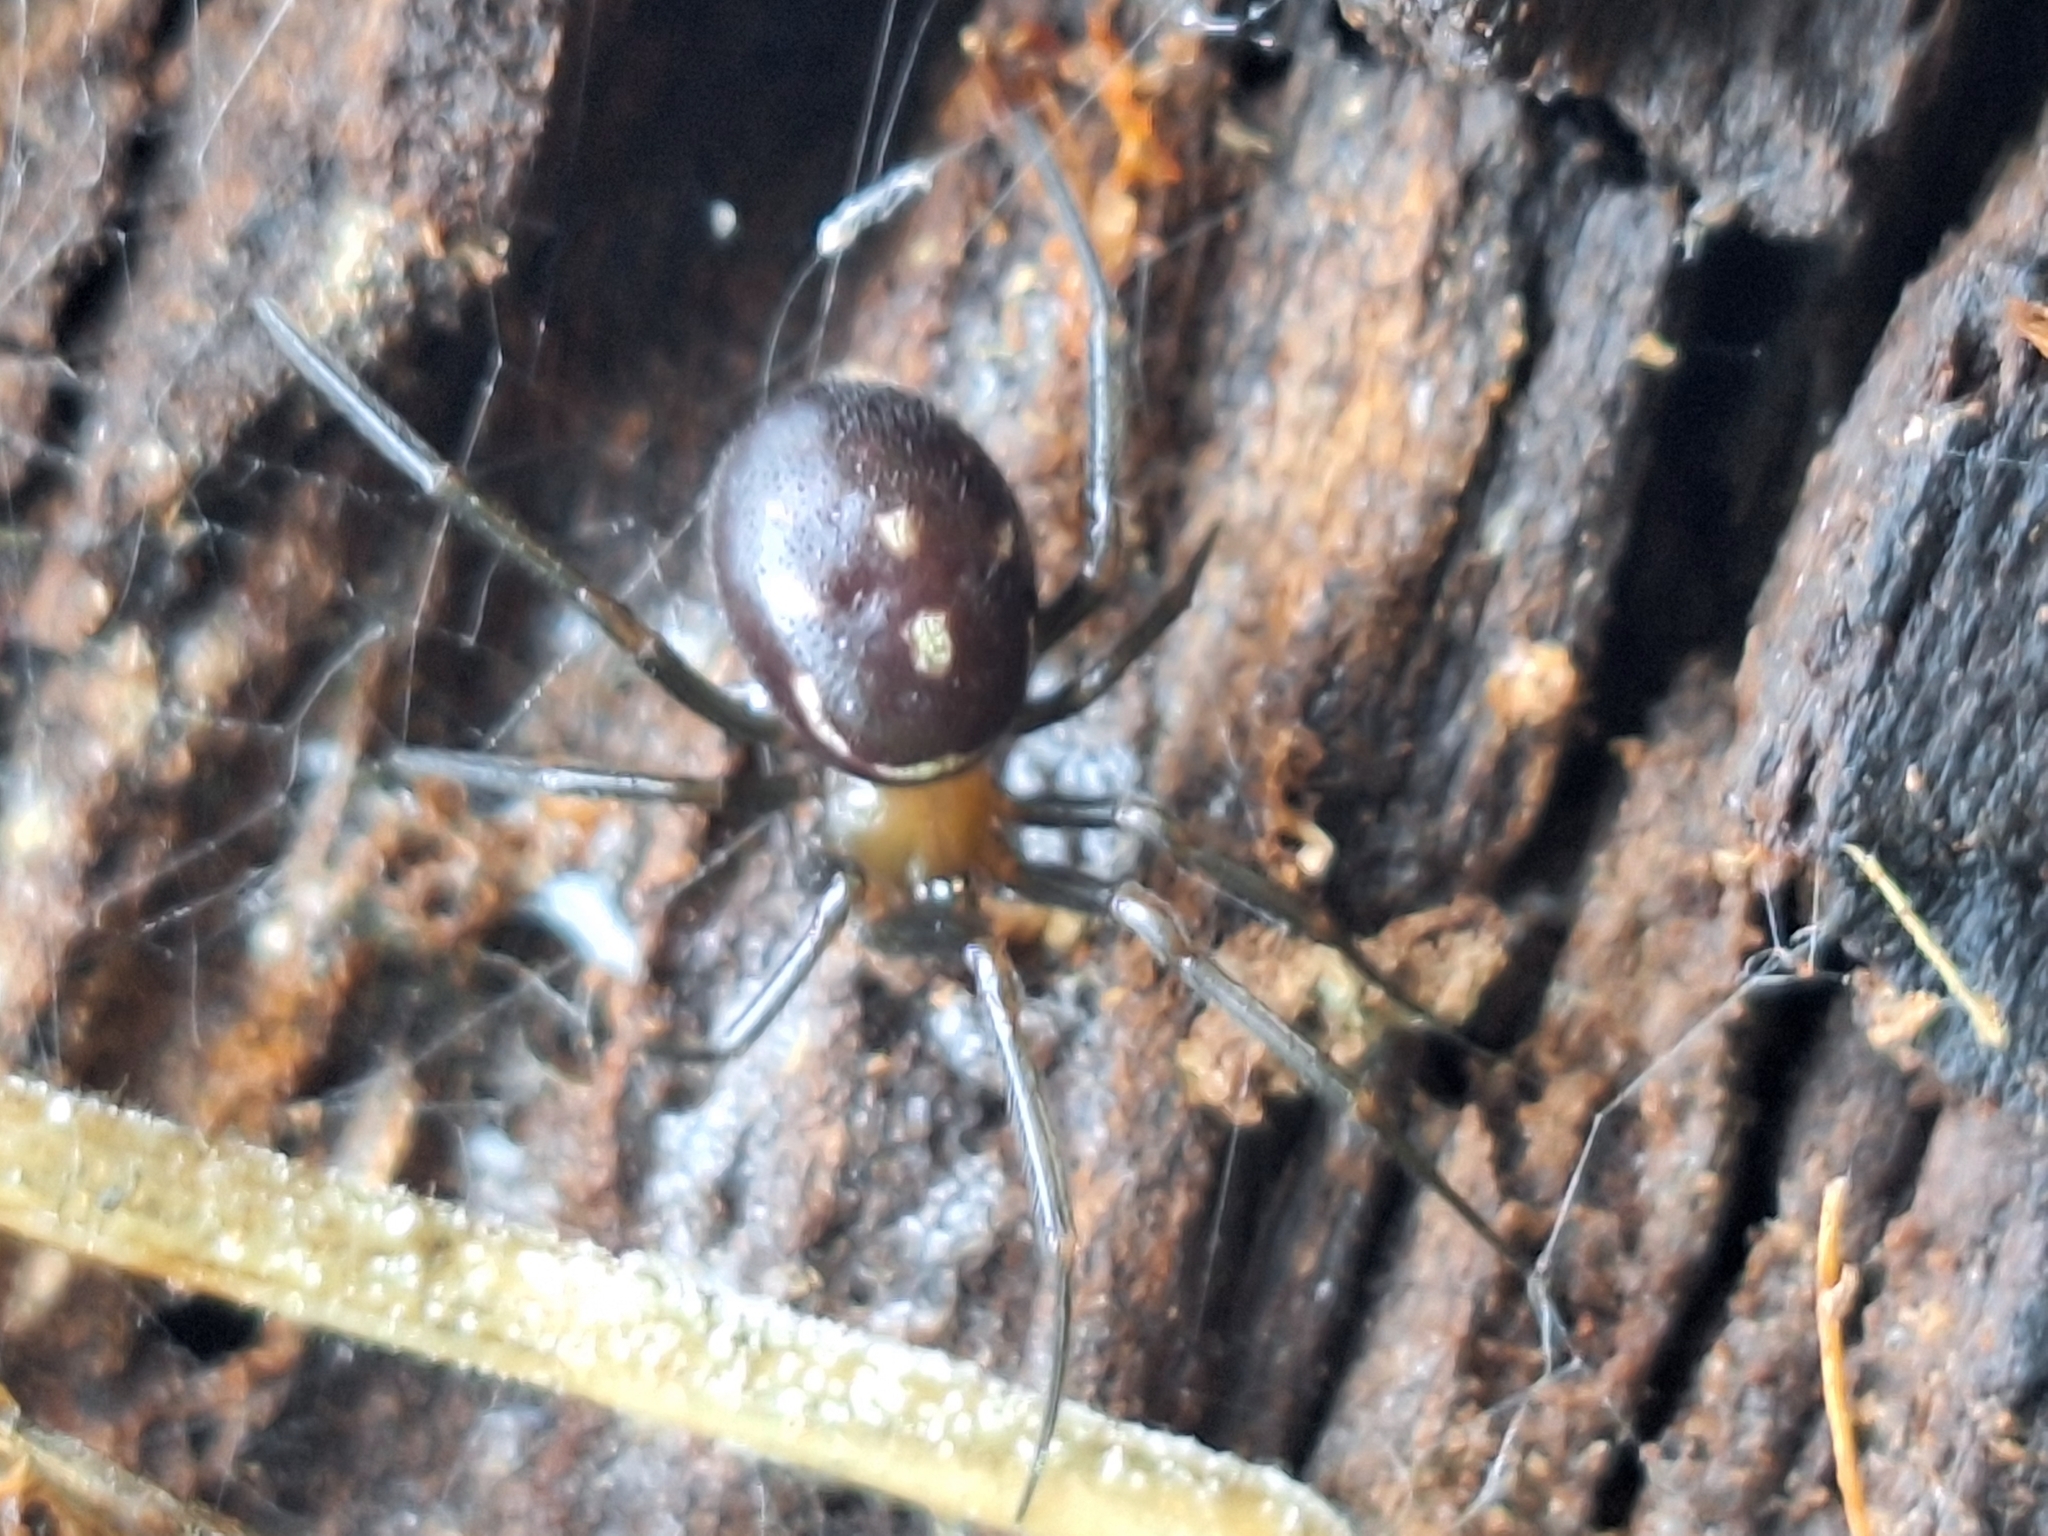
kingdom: Animalia
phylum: Arthropoda
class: Arachnida
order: Araneae
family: Theridiidae
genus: Steatoda
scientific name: Steatoda grossa
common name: False black widow
